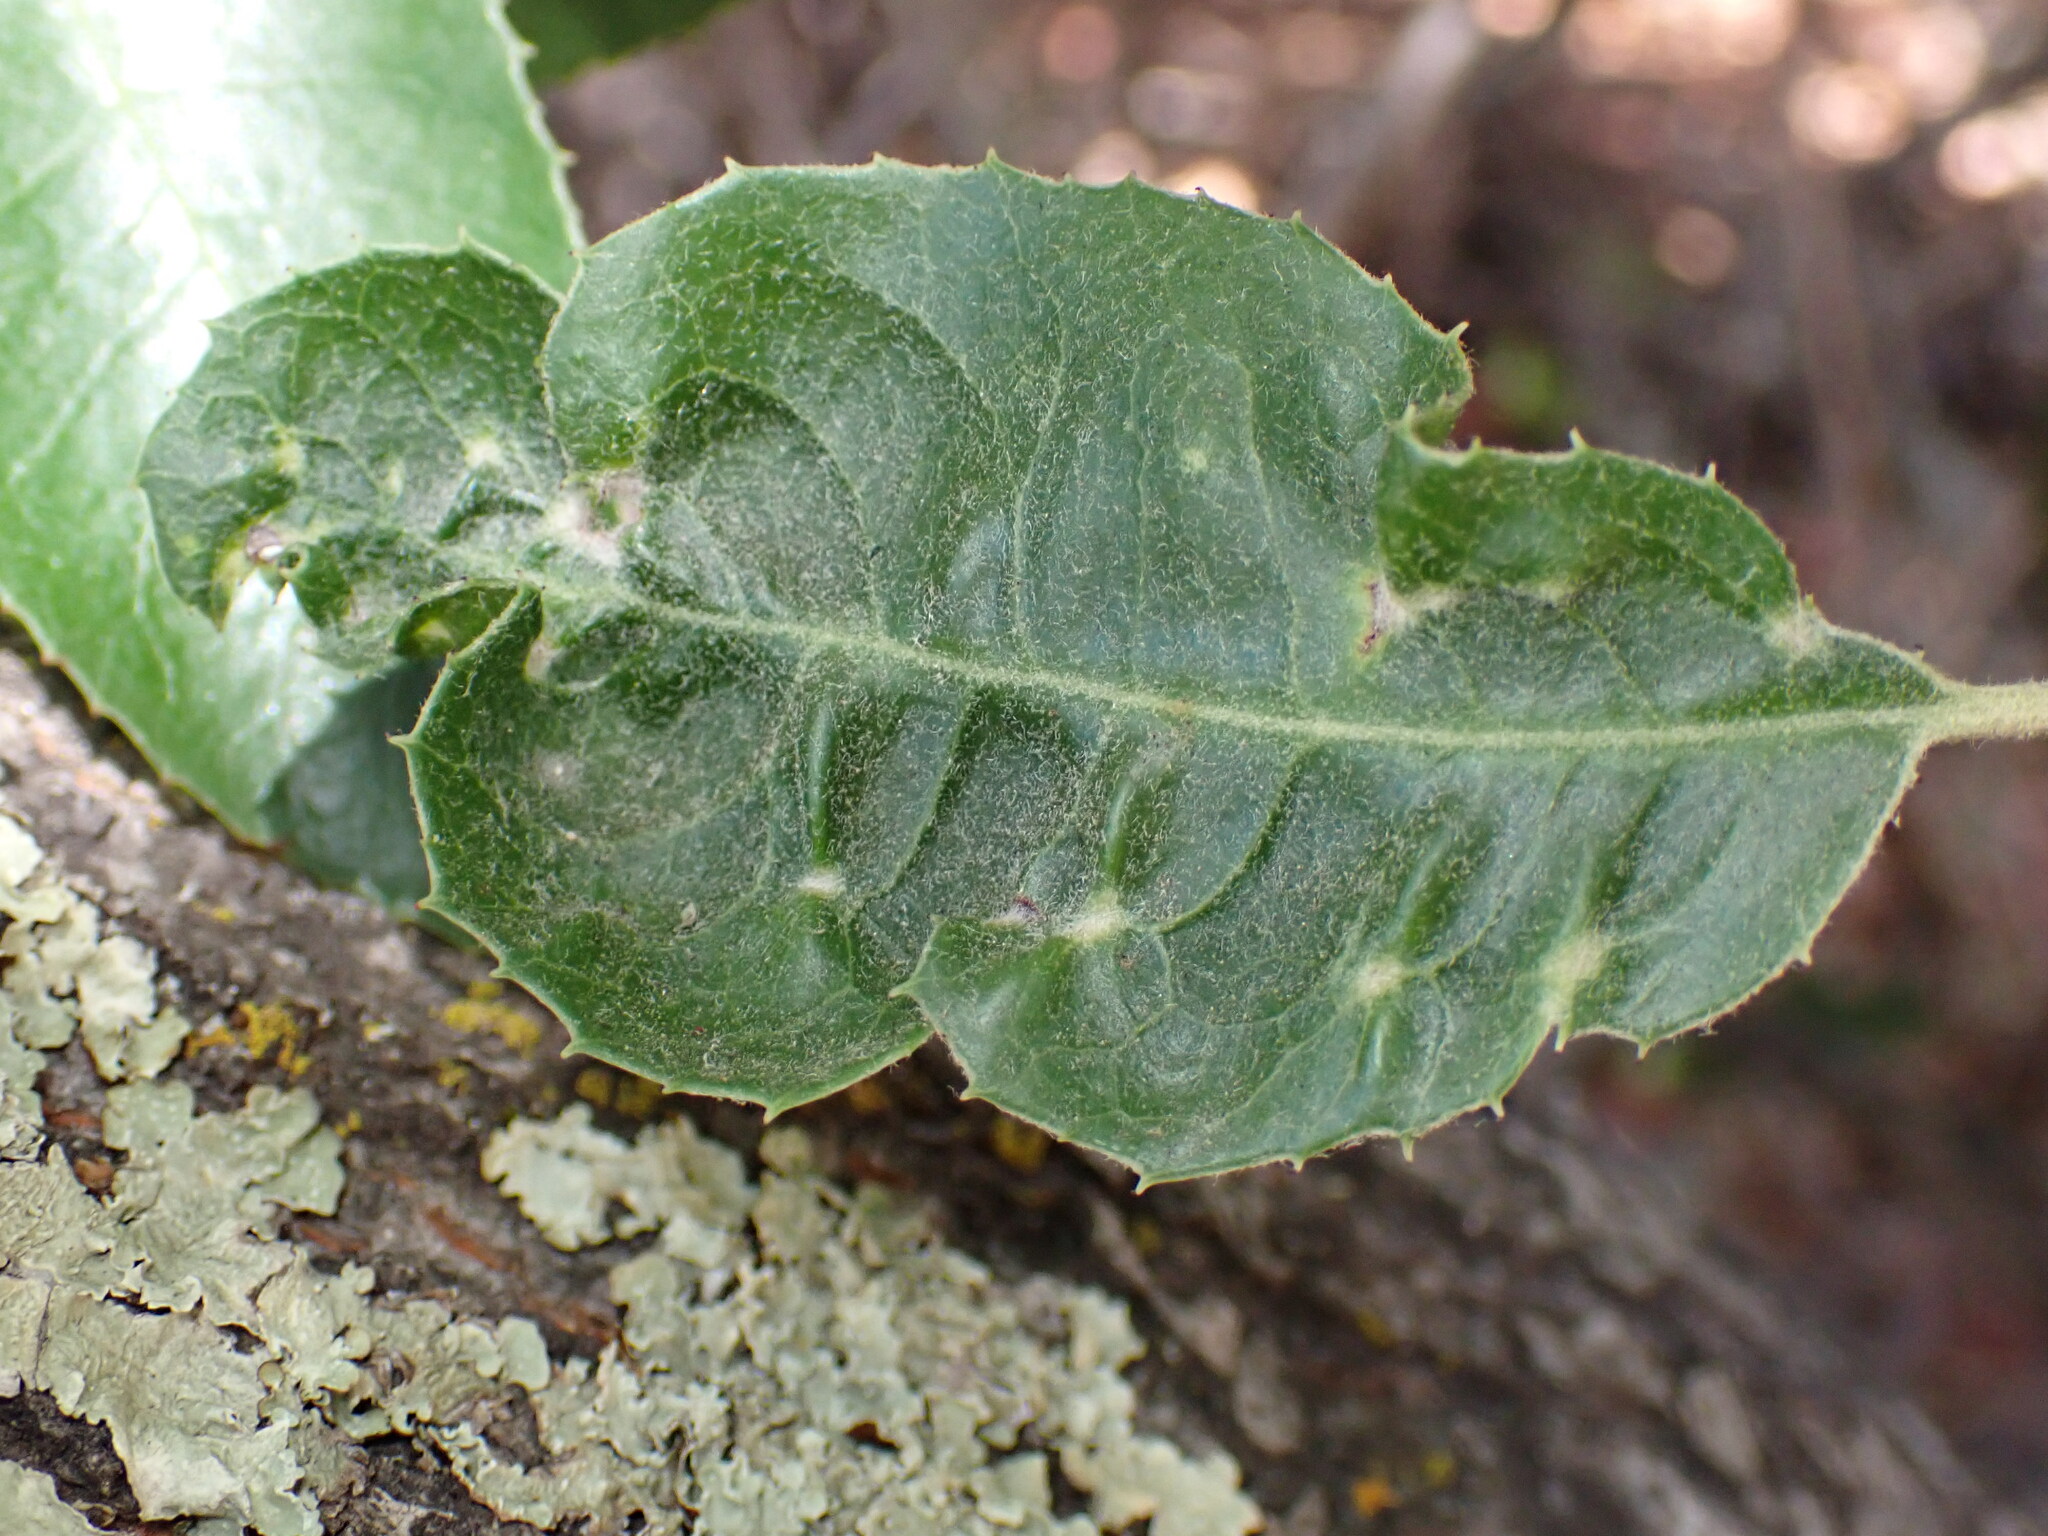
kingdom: Animalia
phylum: Arthropoda
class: Insecta
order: Thysanoptera
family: Phlaeothripidae
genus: Liothrips
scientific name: Liothrips ilex
